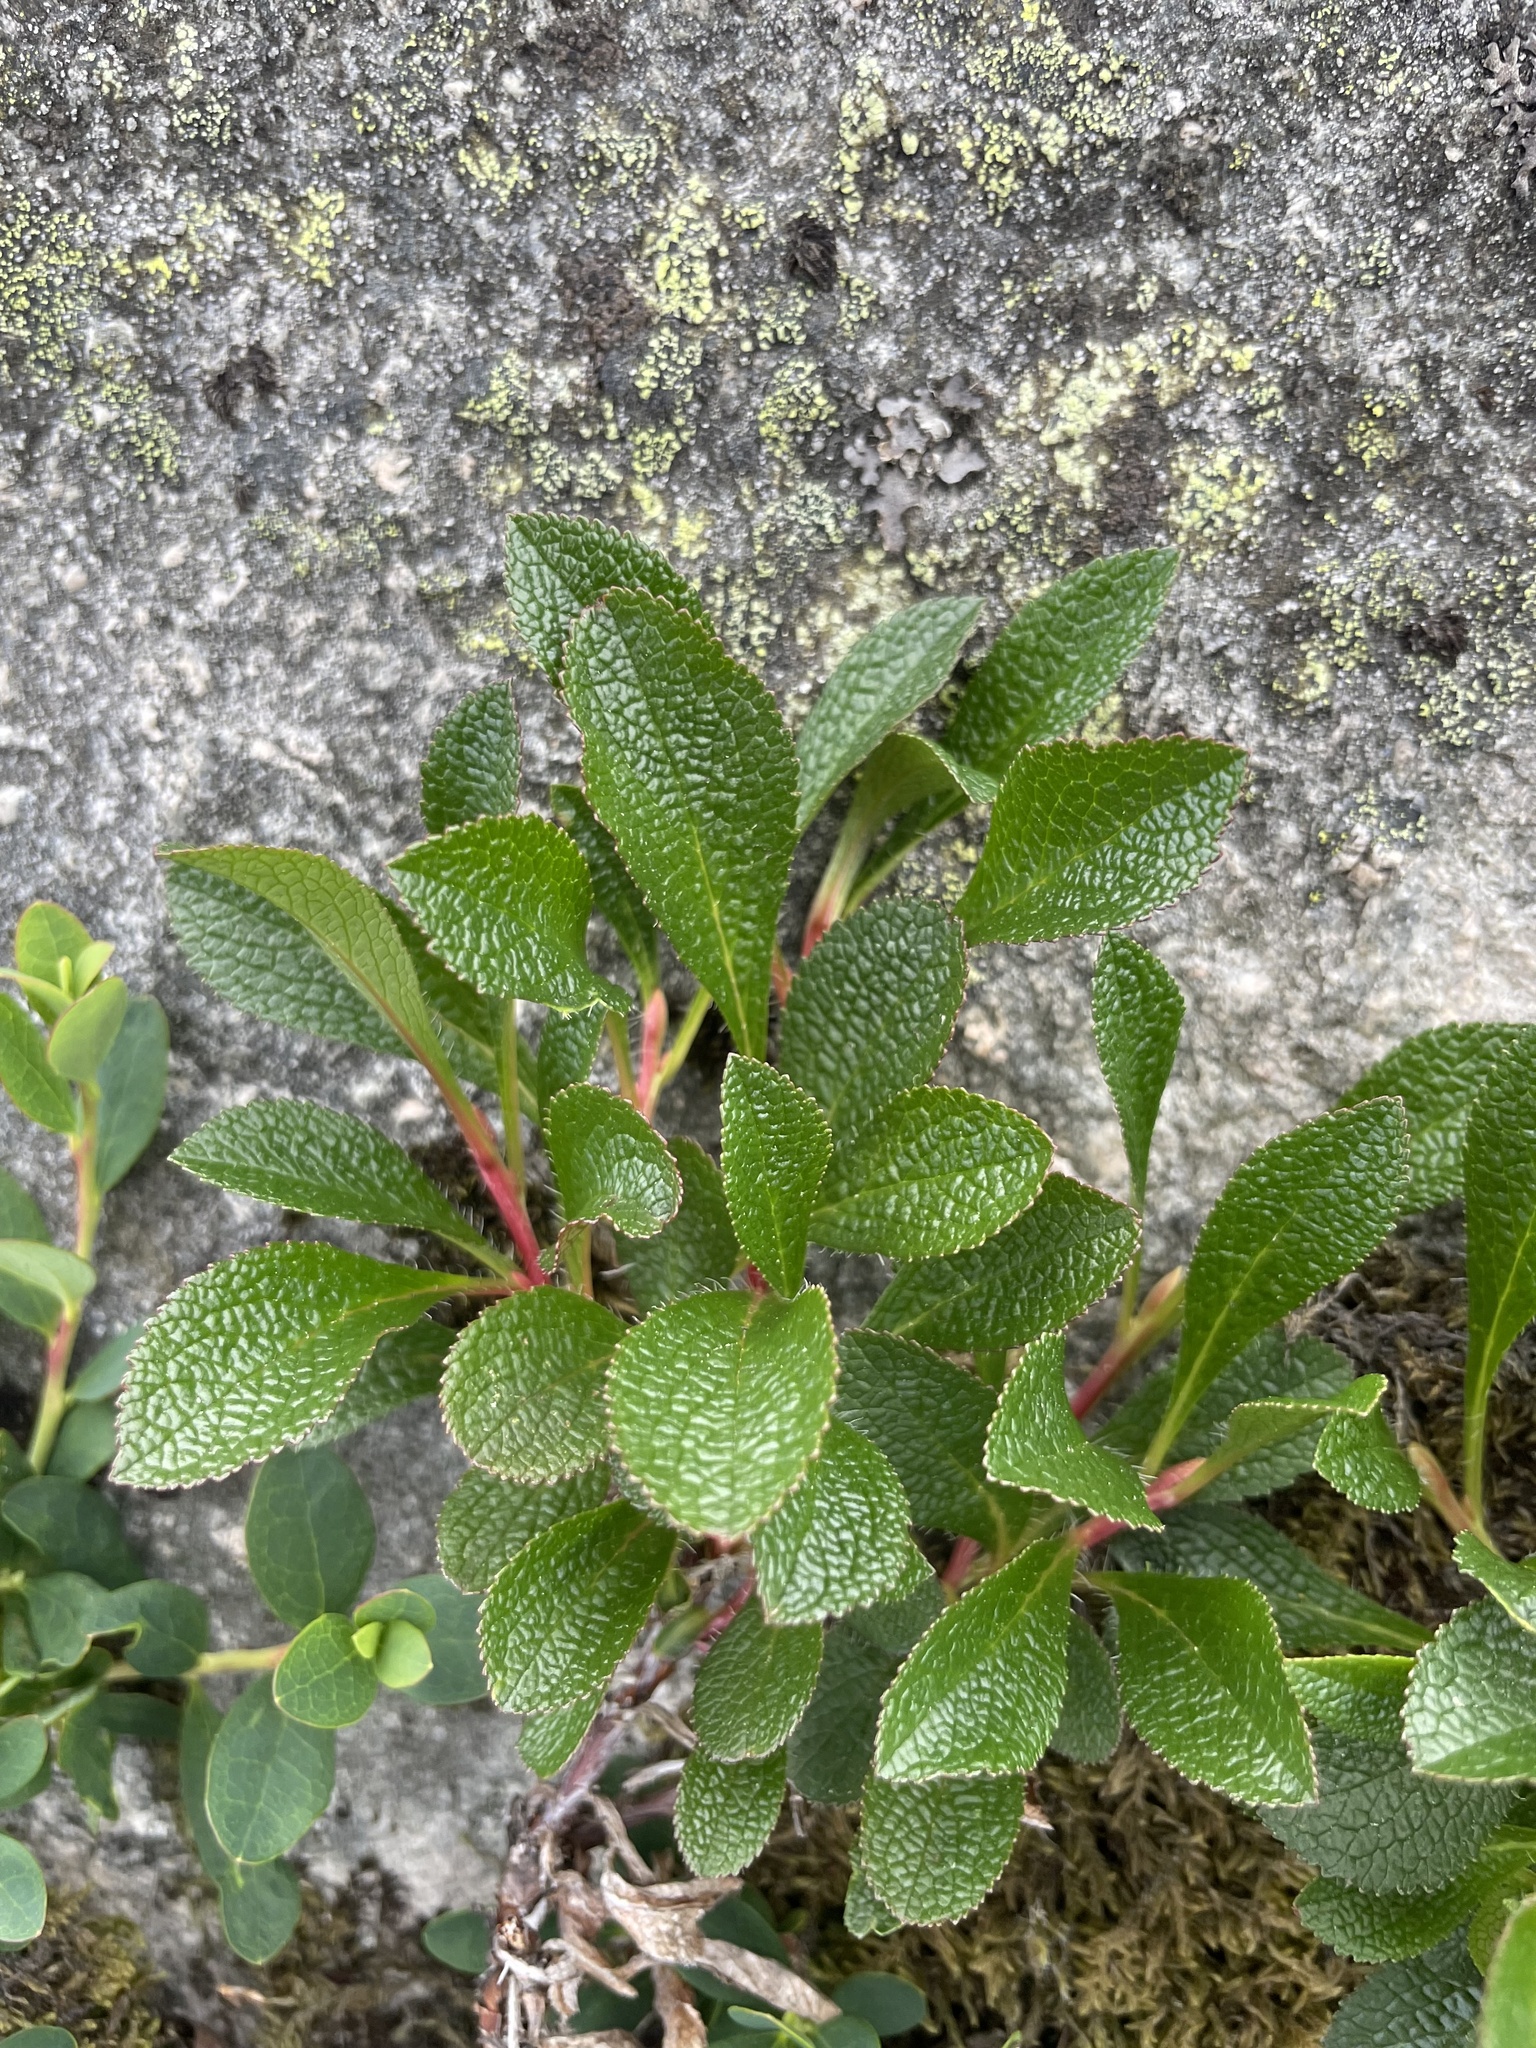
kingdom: Plantae
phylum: Tracheophyta
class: Magnoliopsida
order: Ericales
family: Ericaceae
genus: Arctostaphylos
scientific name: Arctostaphylos alpinus
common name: Alpine bearberry
